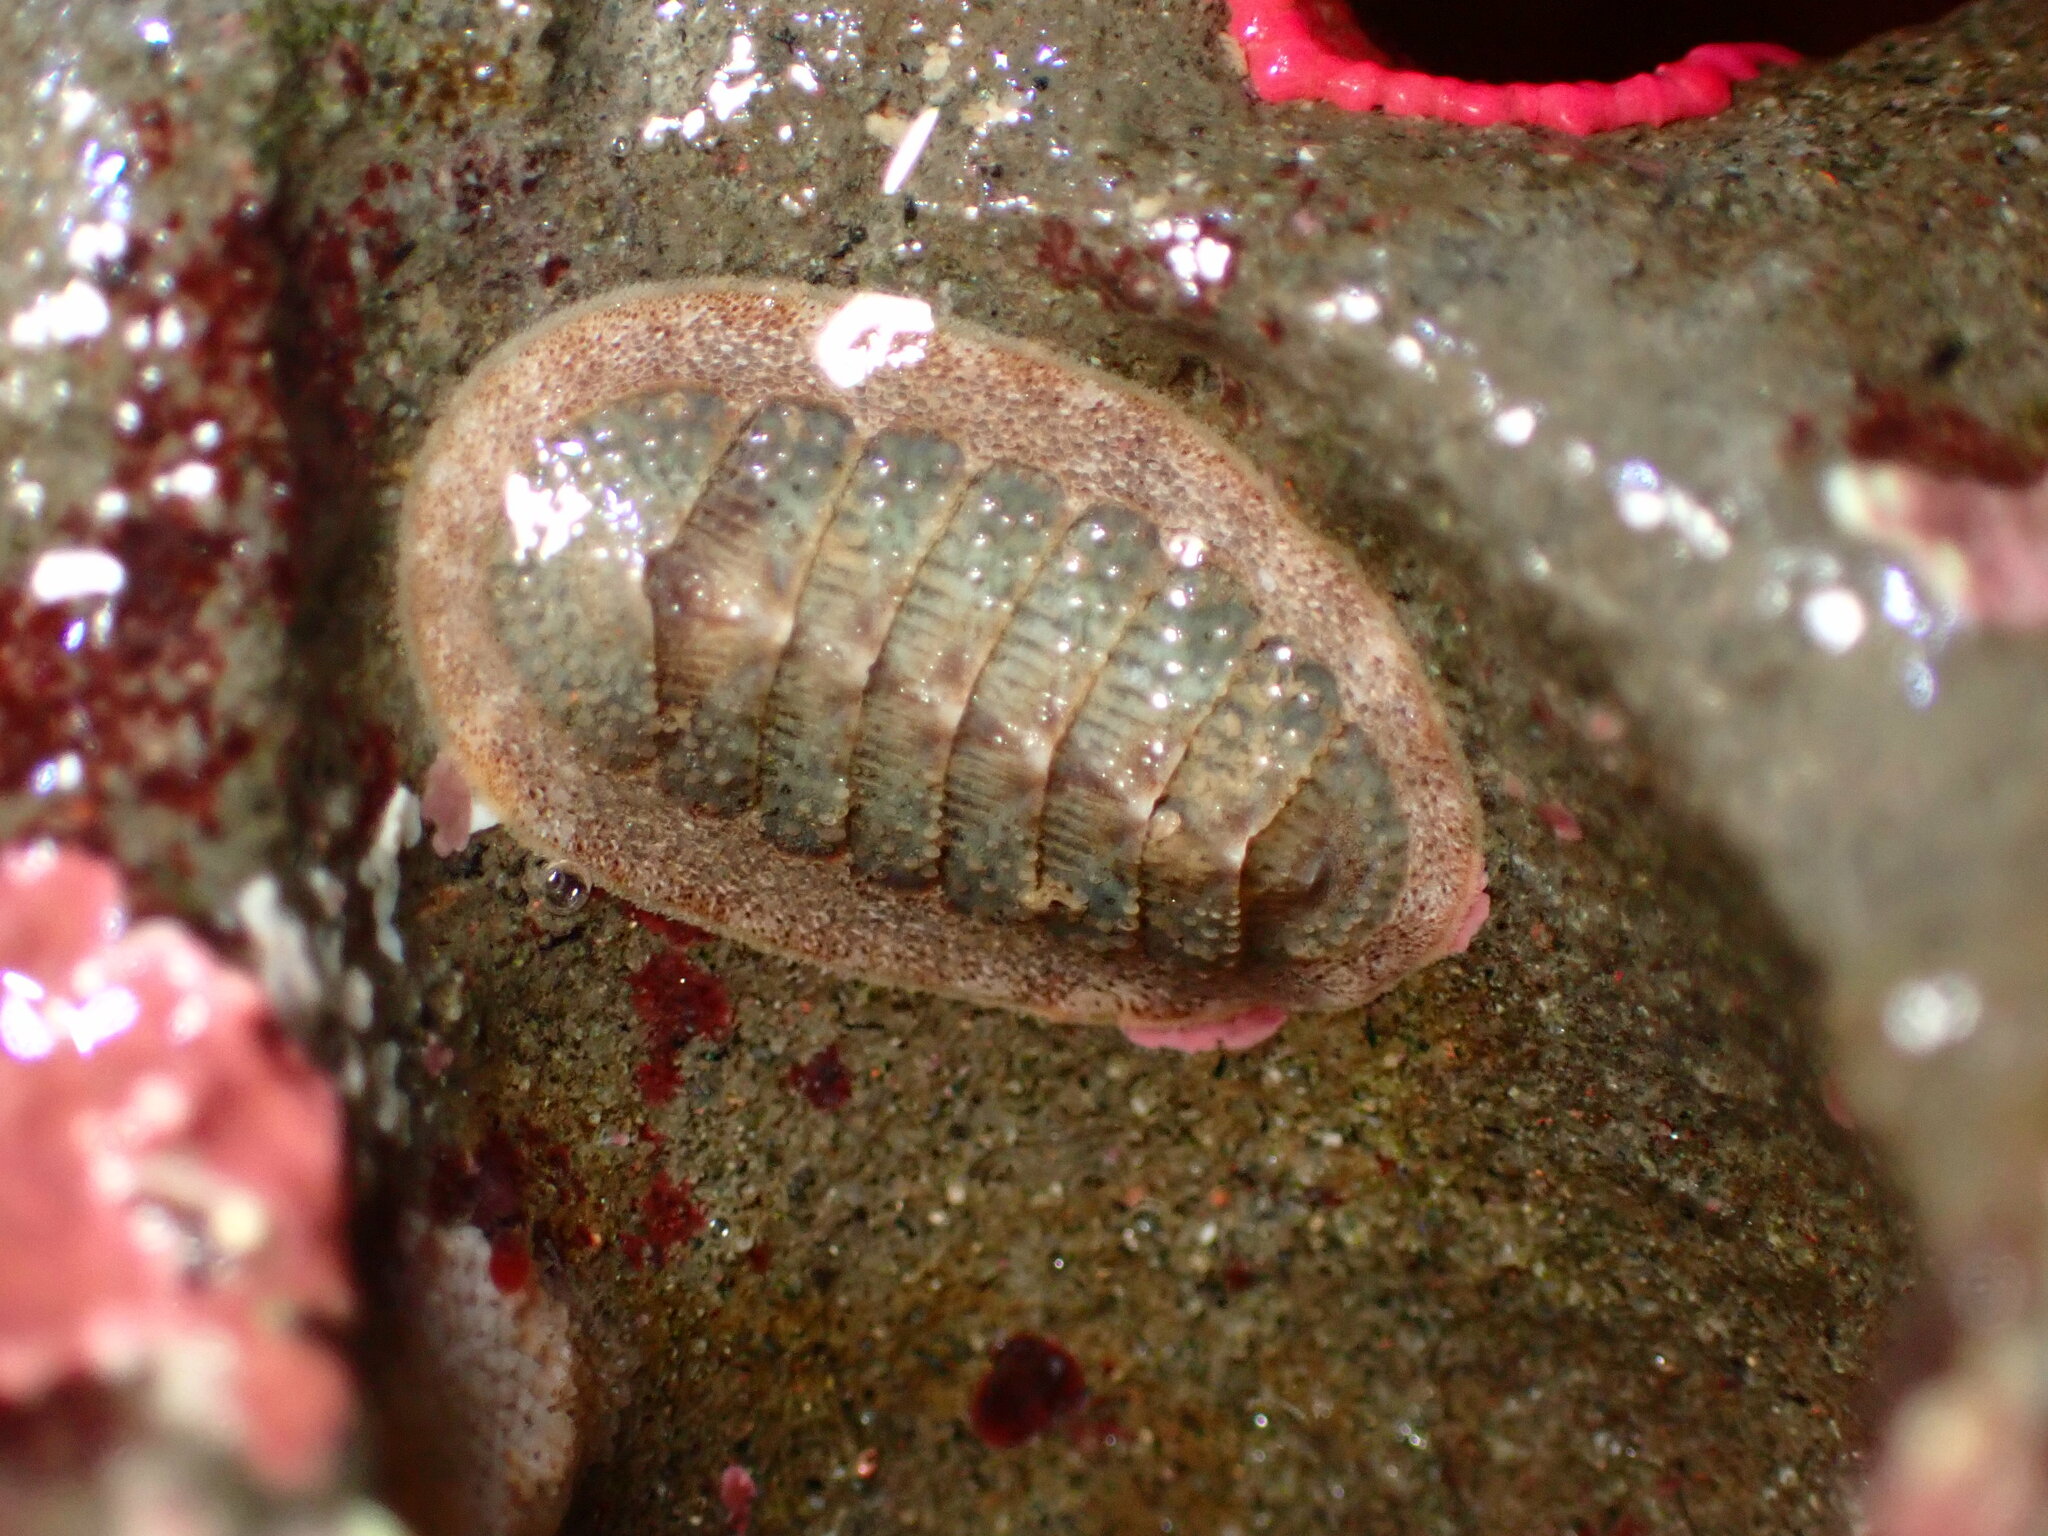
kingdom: Animalia
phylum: Mollusca
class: Polyplacophora
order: Chitonida
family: Ischnochitonidae
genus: Lepidozona
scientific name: Lepidozona cooperi
